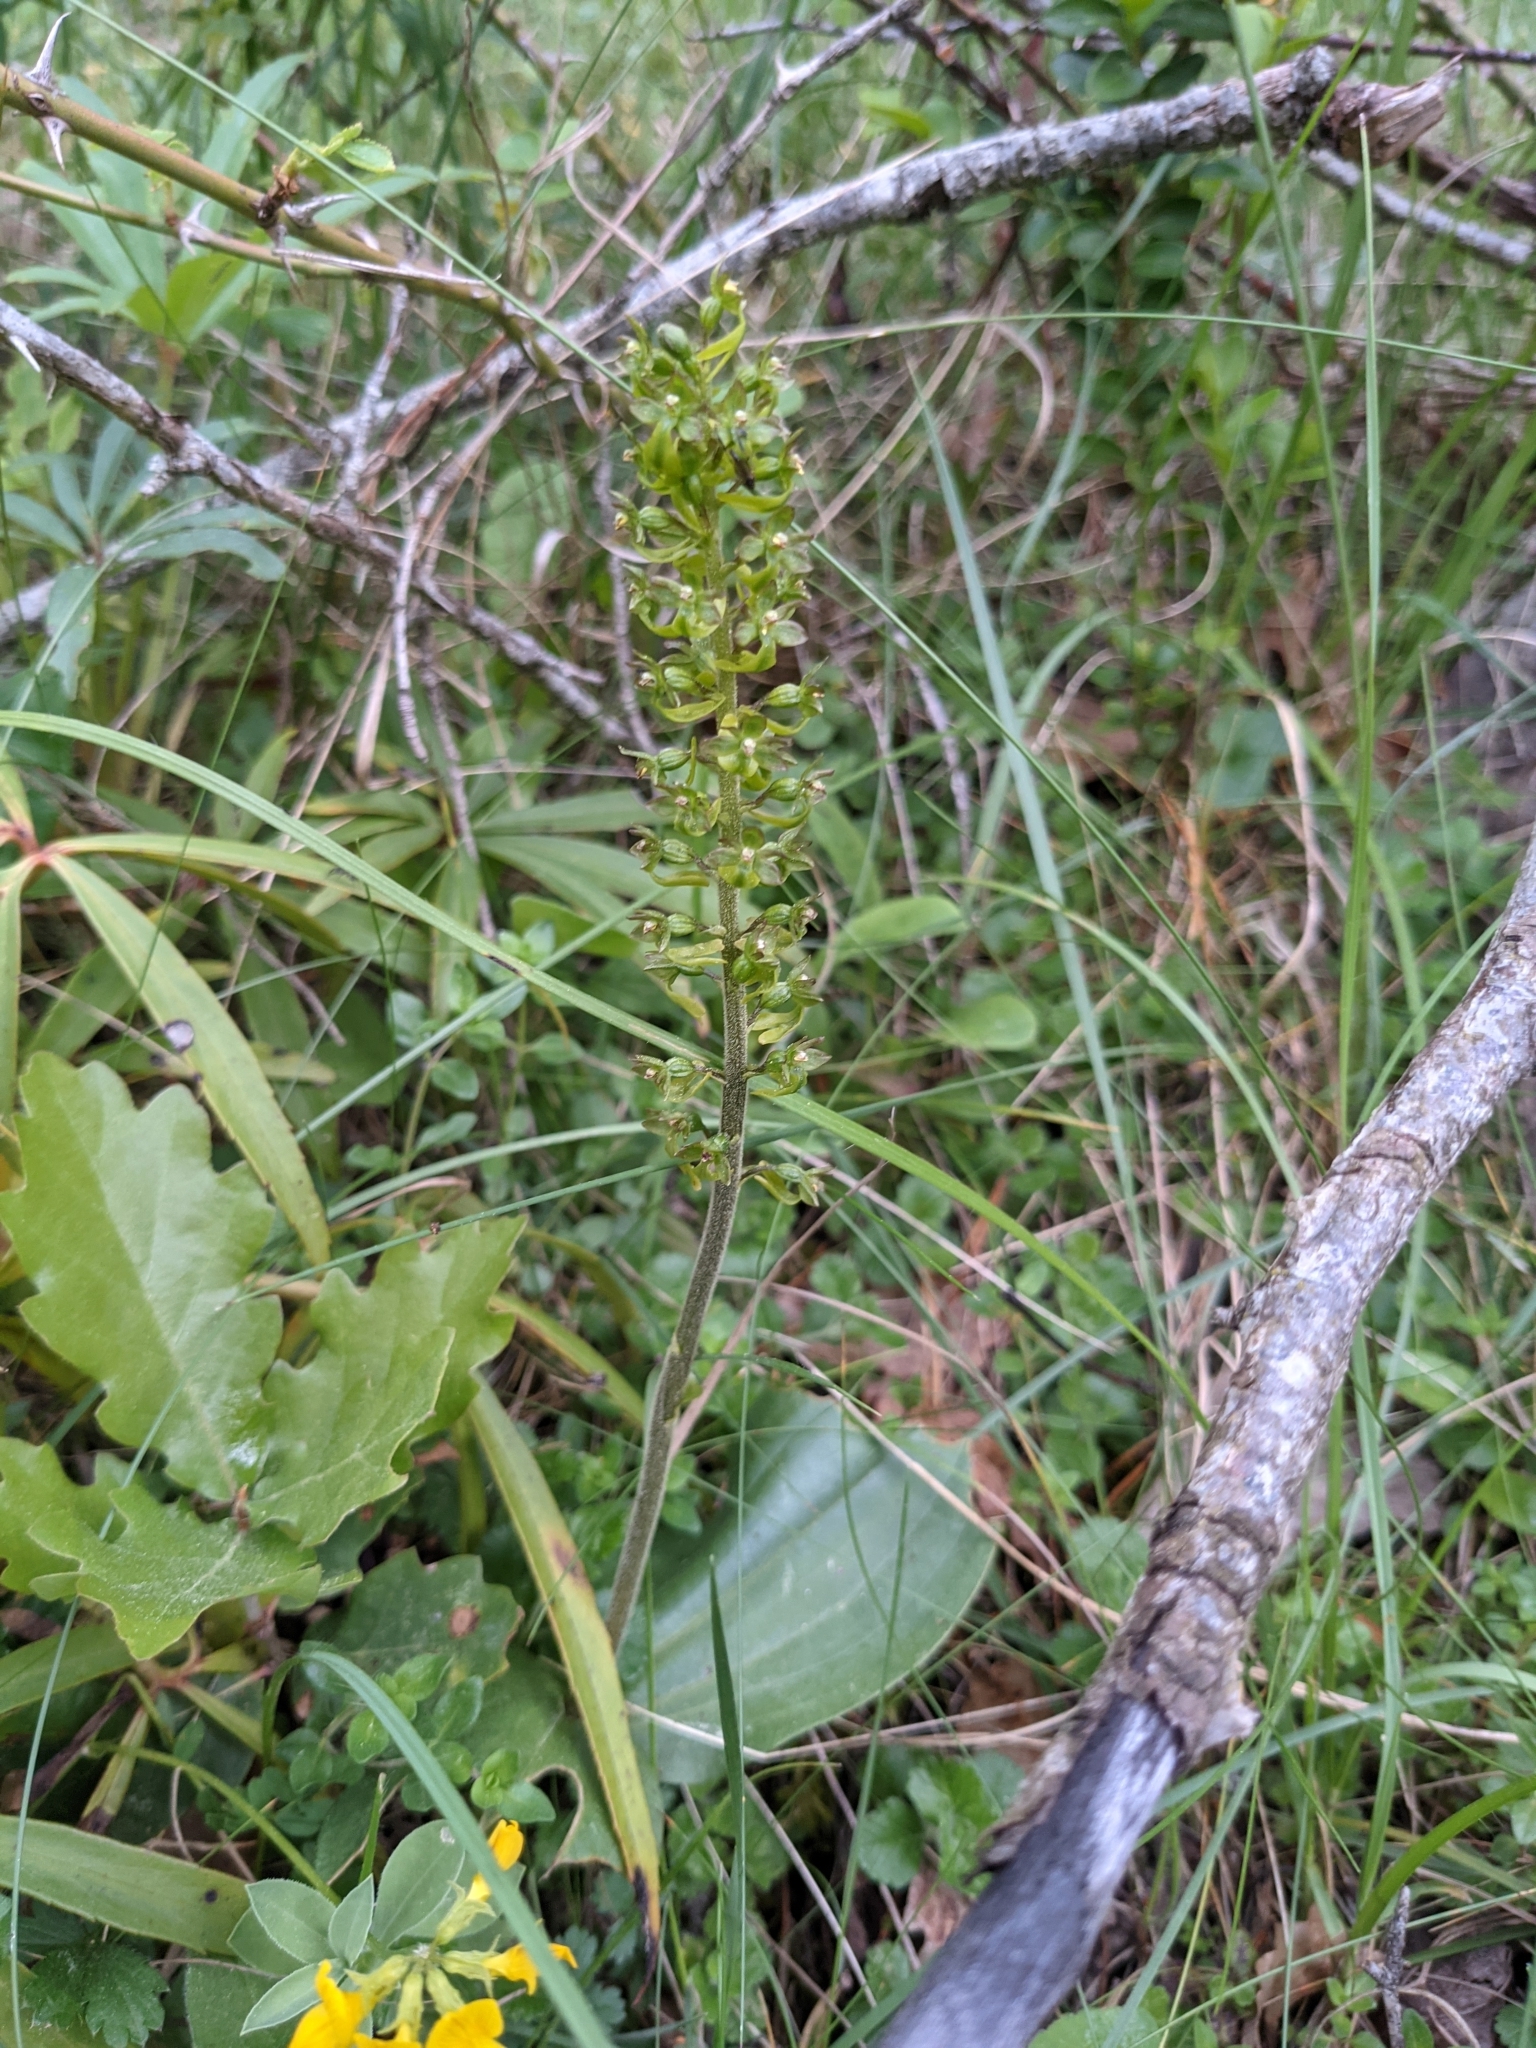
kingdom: Plantae
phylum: Tracheophyta
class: Liliopsida
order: Asparagales
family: Orchidaceae
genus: Neottia
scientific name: Neottia ovata
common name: Common twayblade
